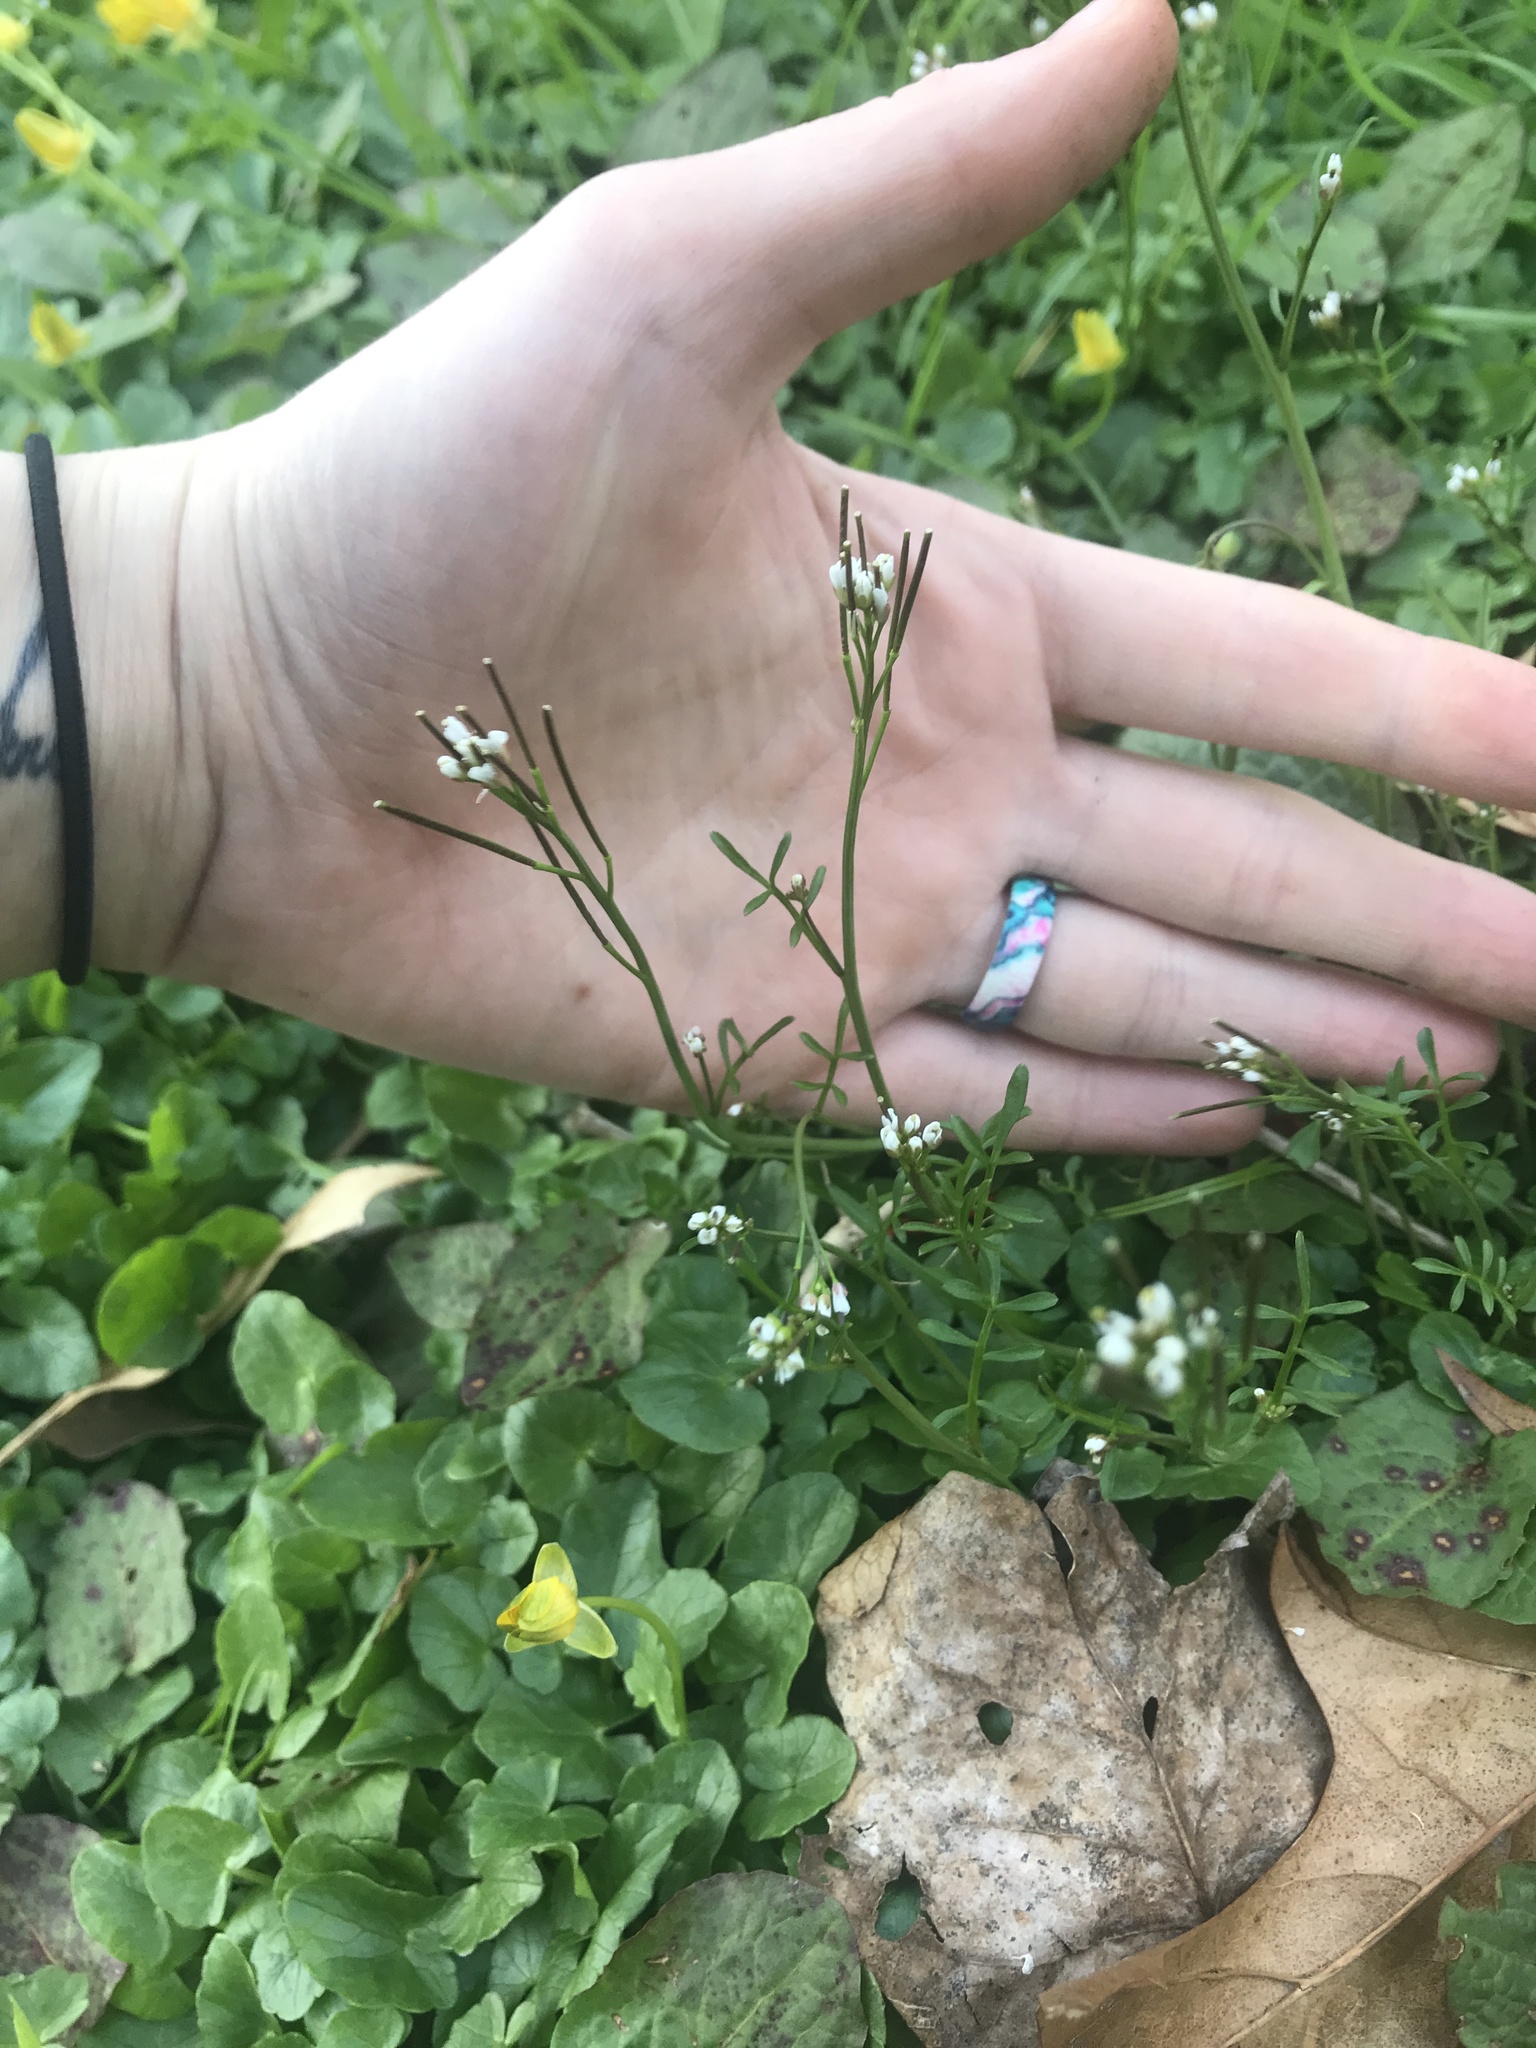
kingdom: Plantae
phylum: Tracheophyta
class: Magnoliopsida
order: Brassicales
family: Brassicaceae
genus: Cardamine
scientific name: Cardamine hirsuta
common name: Hairy bittercress
